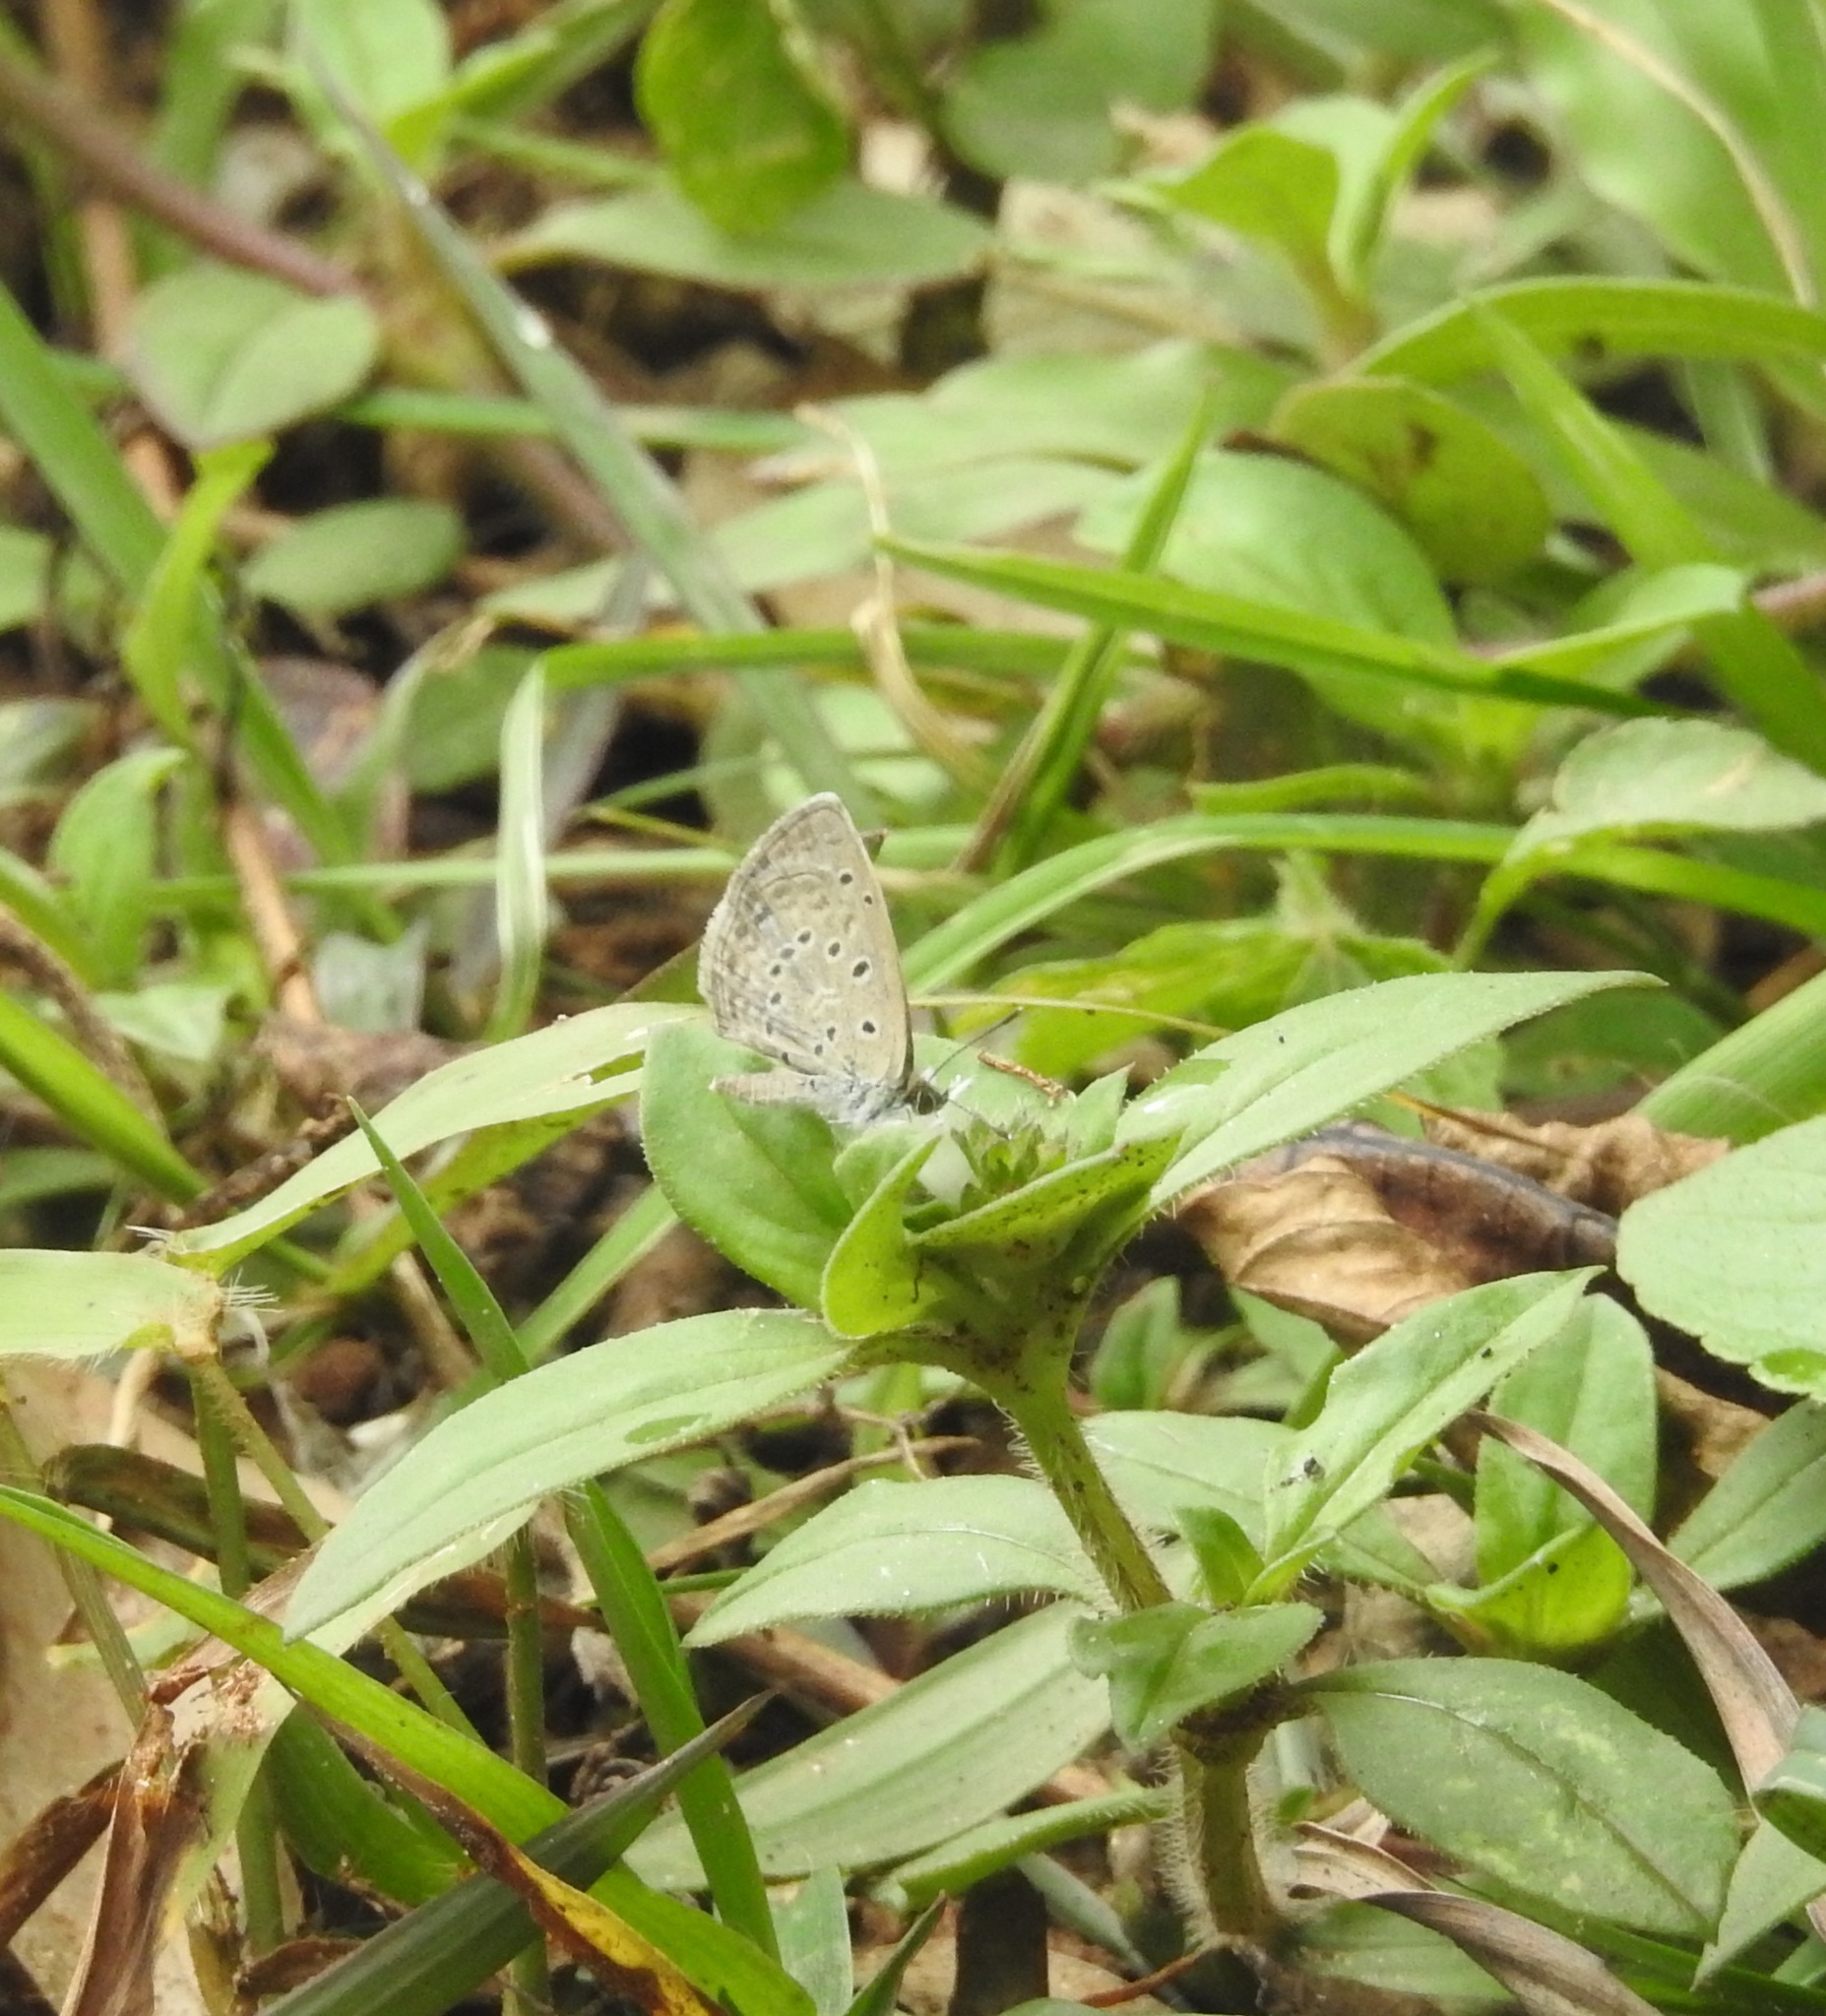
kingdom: Animalia
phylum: Arthropoda
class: Insecta
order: Lepidoptera
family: Lycaenidae
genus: Pseudozizeeria
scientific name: Pseudozizeeria maha
